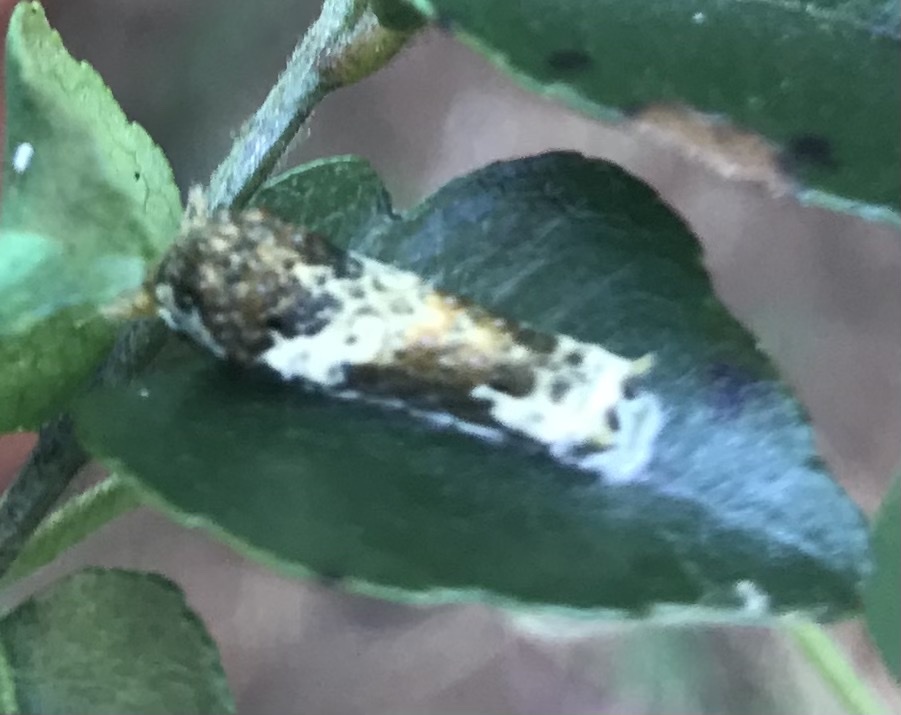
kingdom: Animalia
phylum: Arthropoda
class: Insecta
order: Lepidoptera
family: Papilionidae
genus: Papilio
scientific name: Papilio polytes
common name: Common mormon
